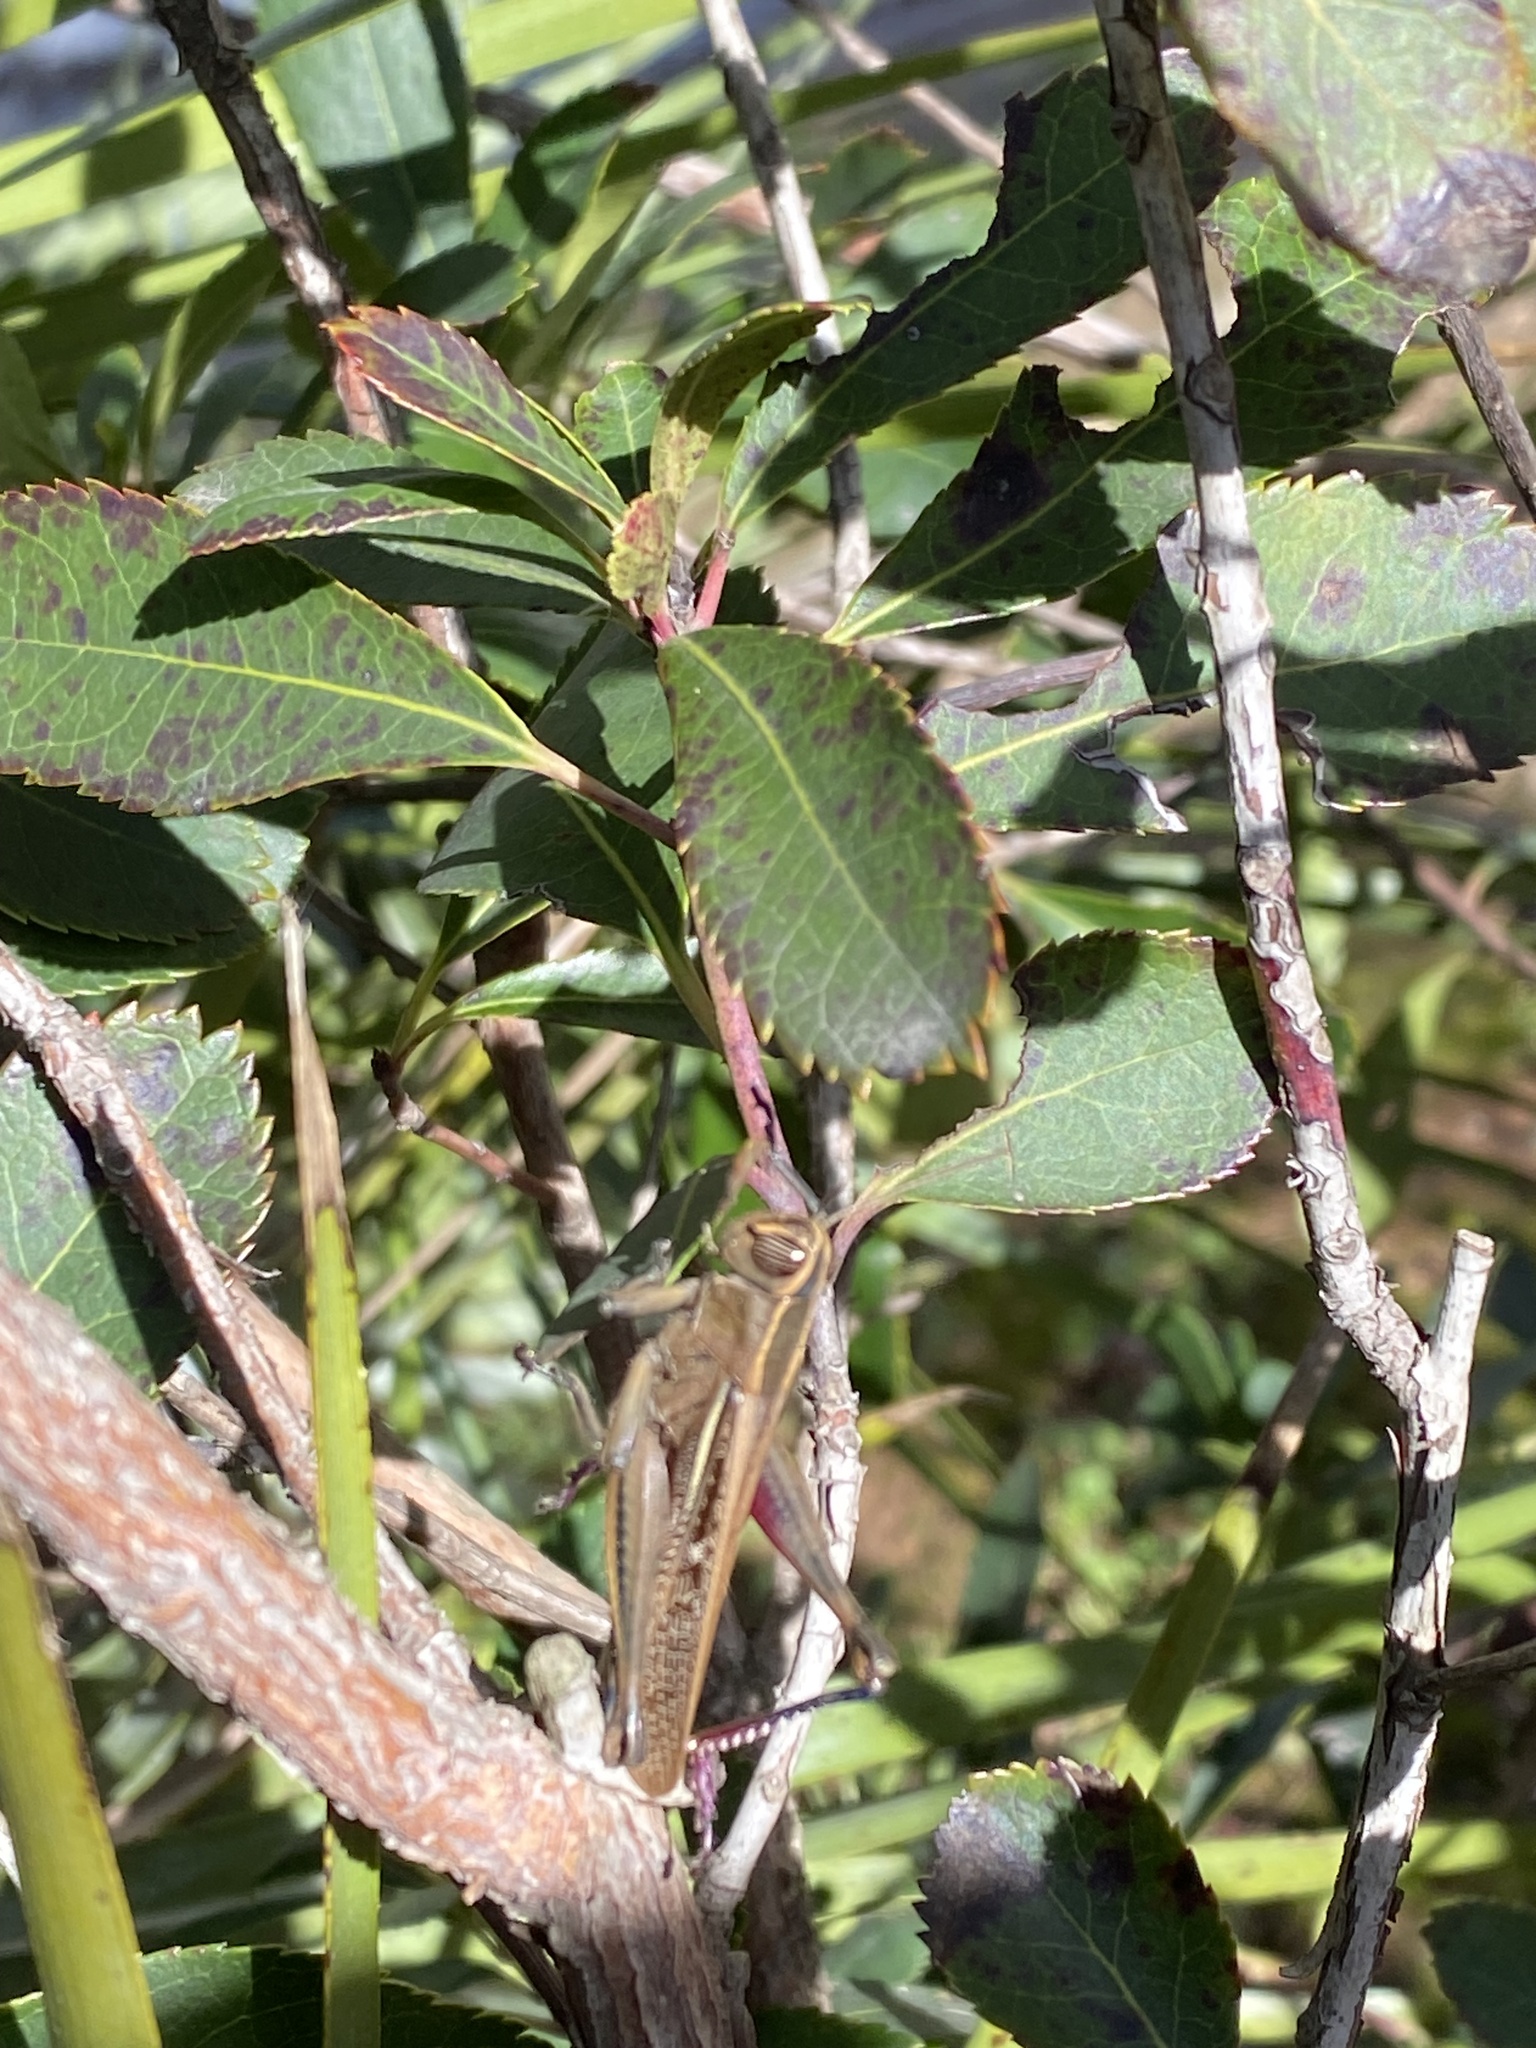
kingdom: Animalia
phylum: Arthropoda
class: Insecta
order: Orthoptera
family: Acrididae
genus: Eyprepocnemis
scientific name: Eyprepocnemis plorans
